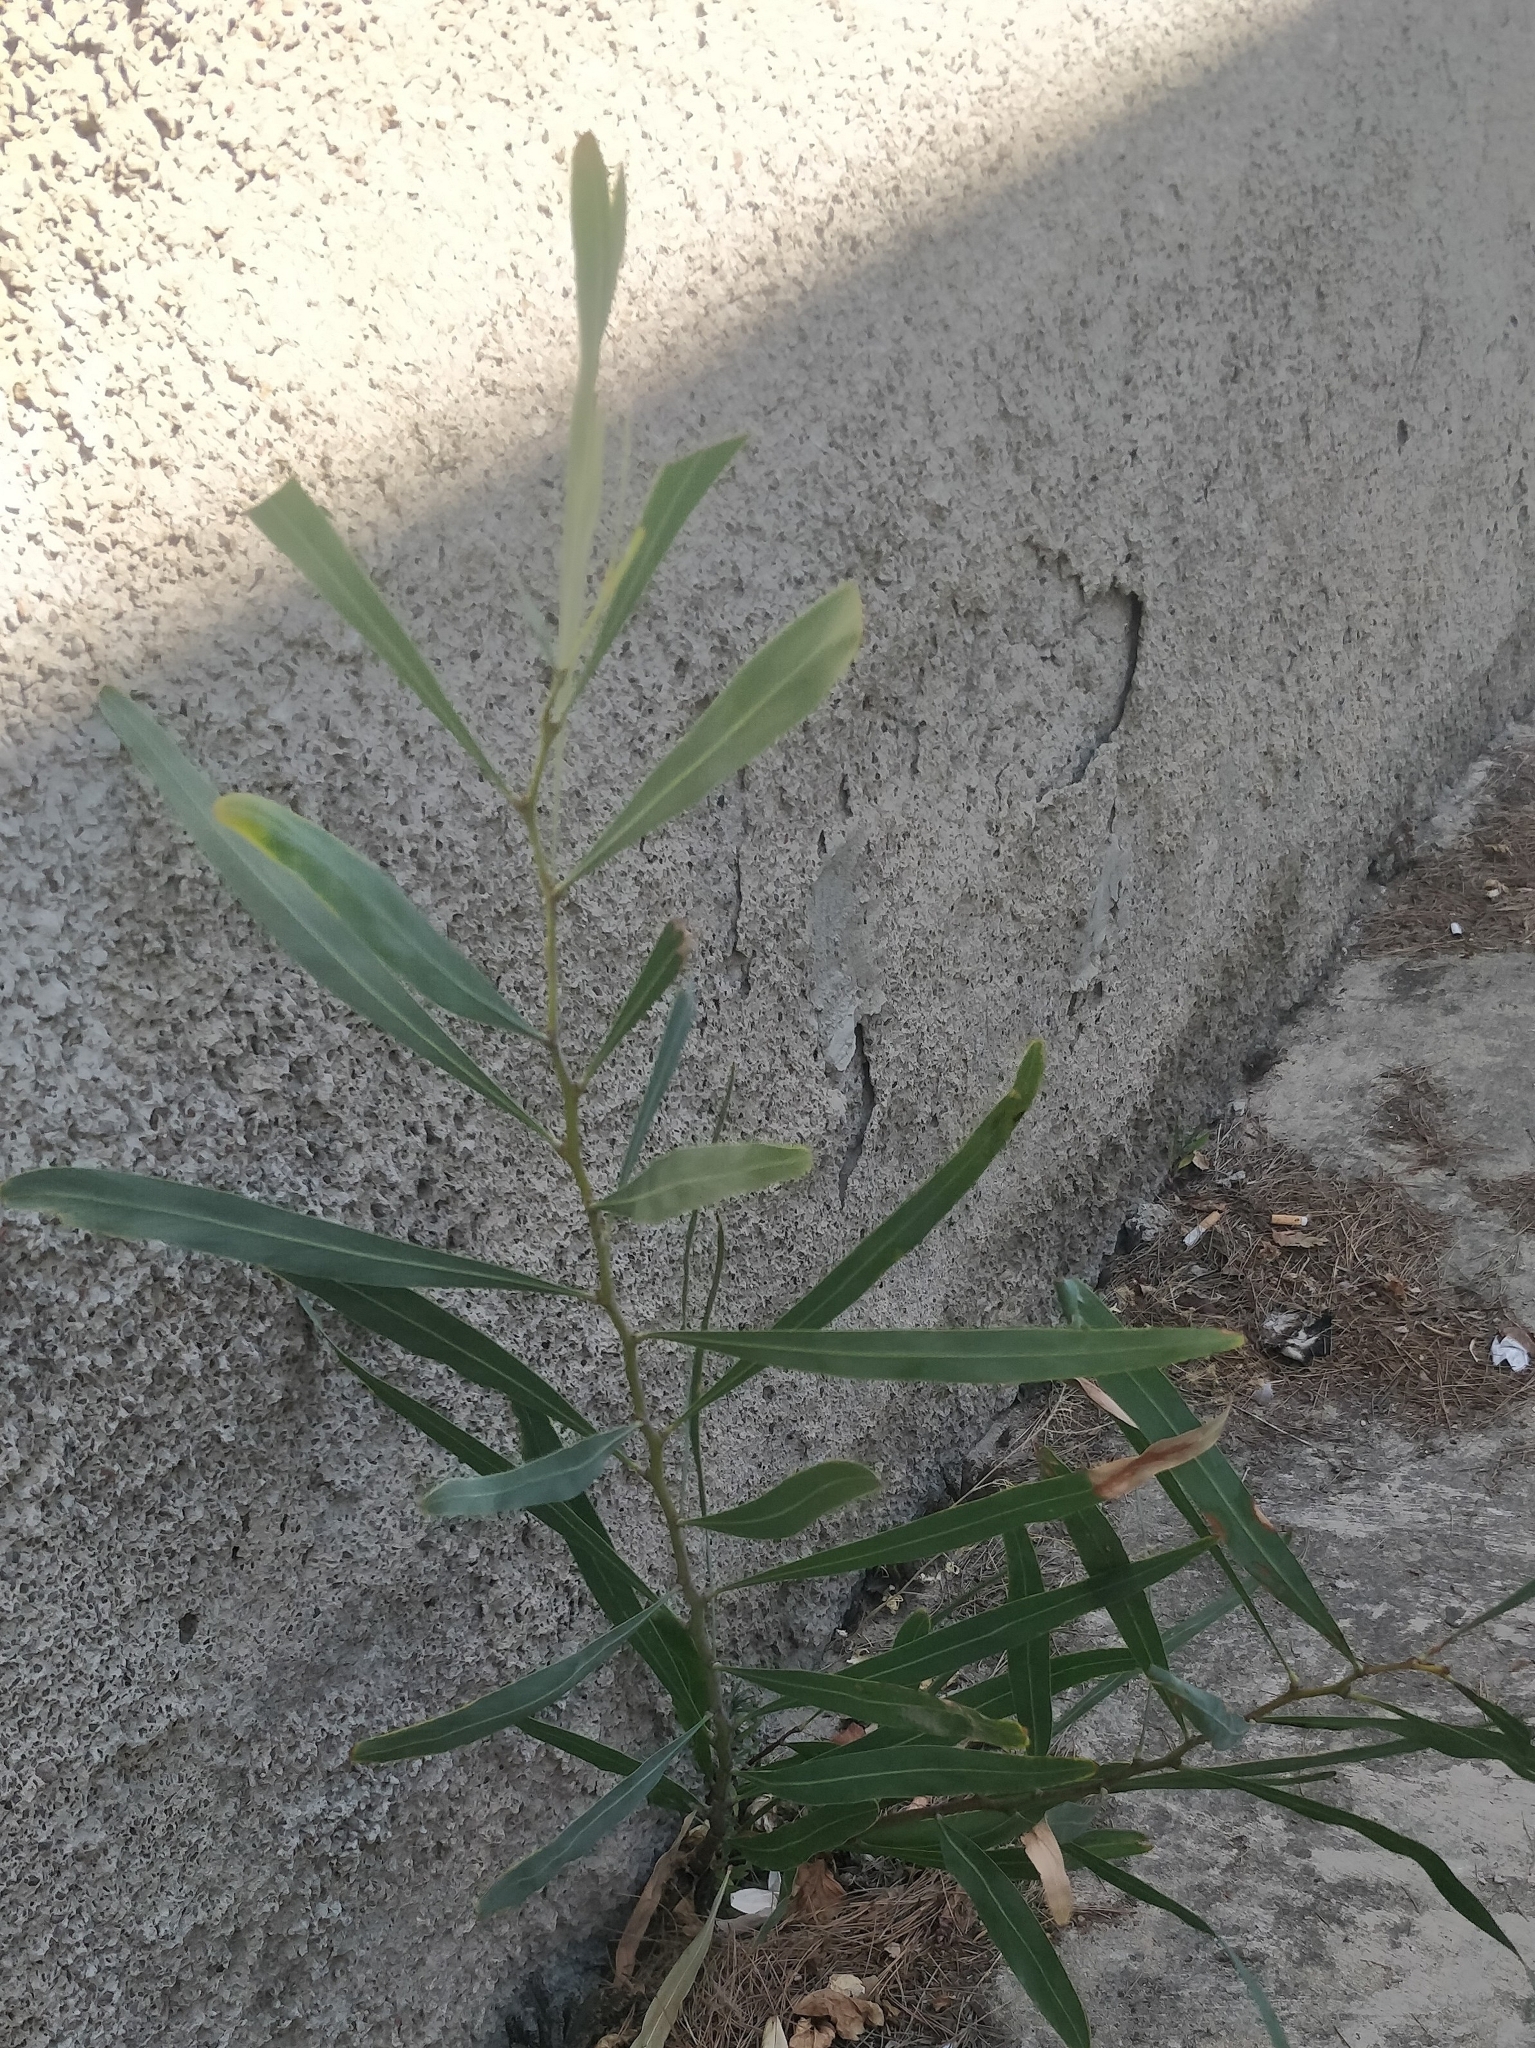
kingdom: Plantae
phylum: Tracheophyta
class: Magnoliopsida
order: Fabales
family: Fabaceae
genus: Acacia
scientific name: Acacia saligna
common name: Orange wattle
